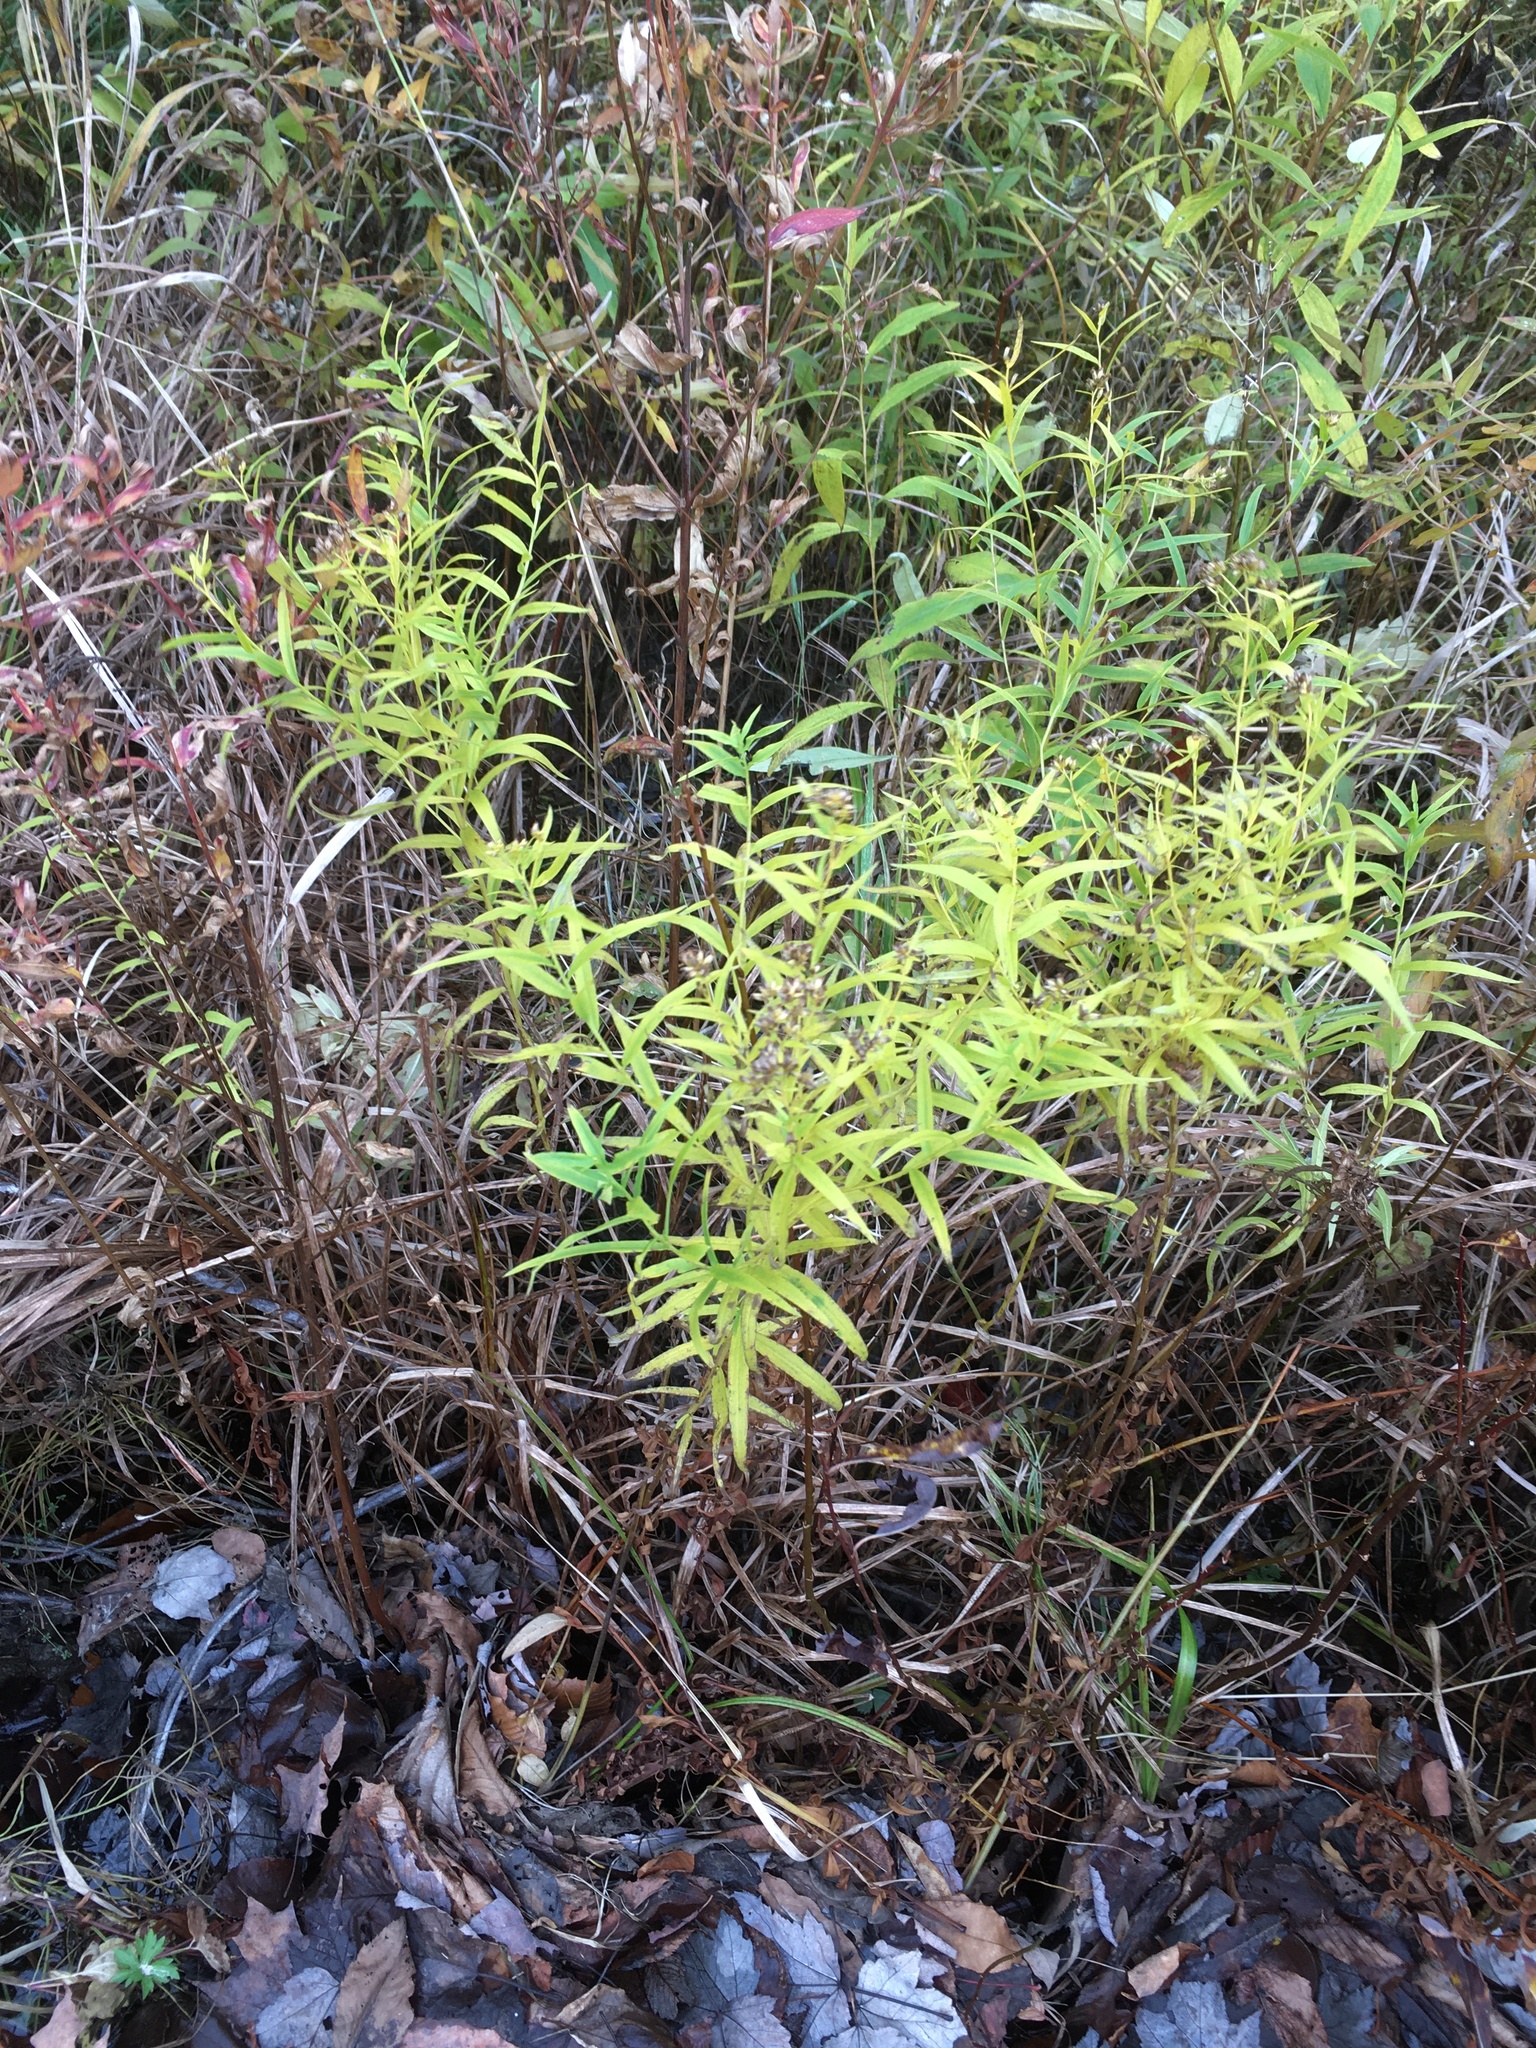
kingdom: Plantae
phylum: Tracheophyta
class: Magnoliopsida
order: Asterales
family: Asteraceae
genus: Euthamia
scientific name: Euthamia graminifolia
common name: Common goldentop
